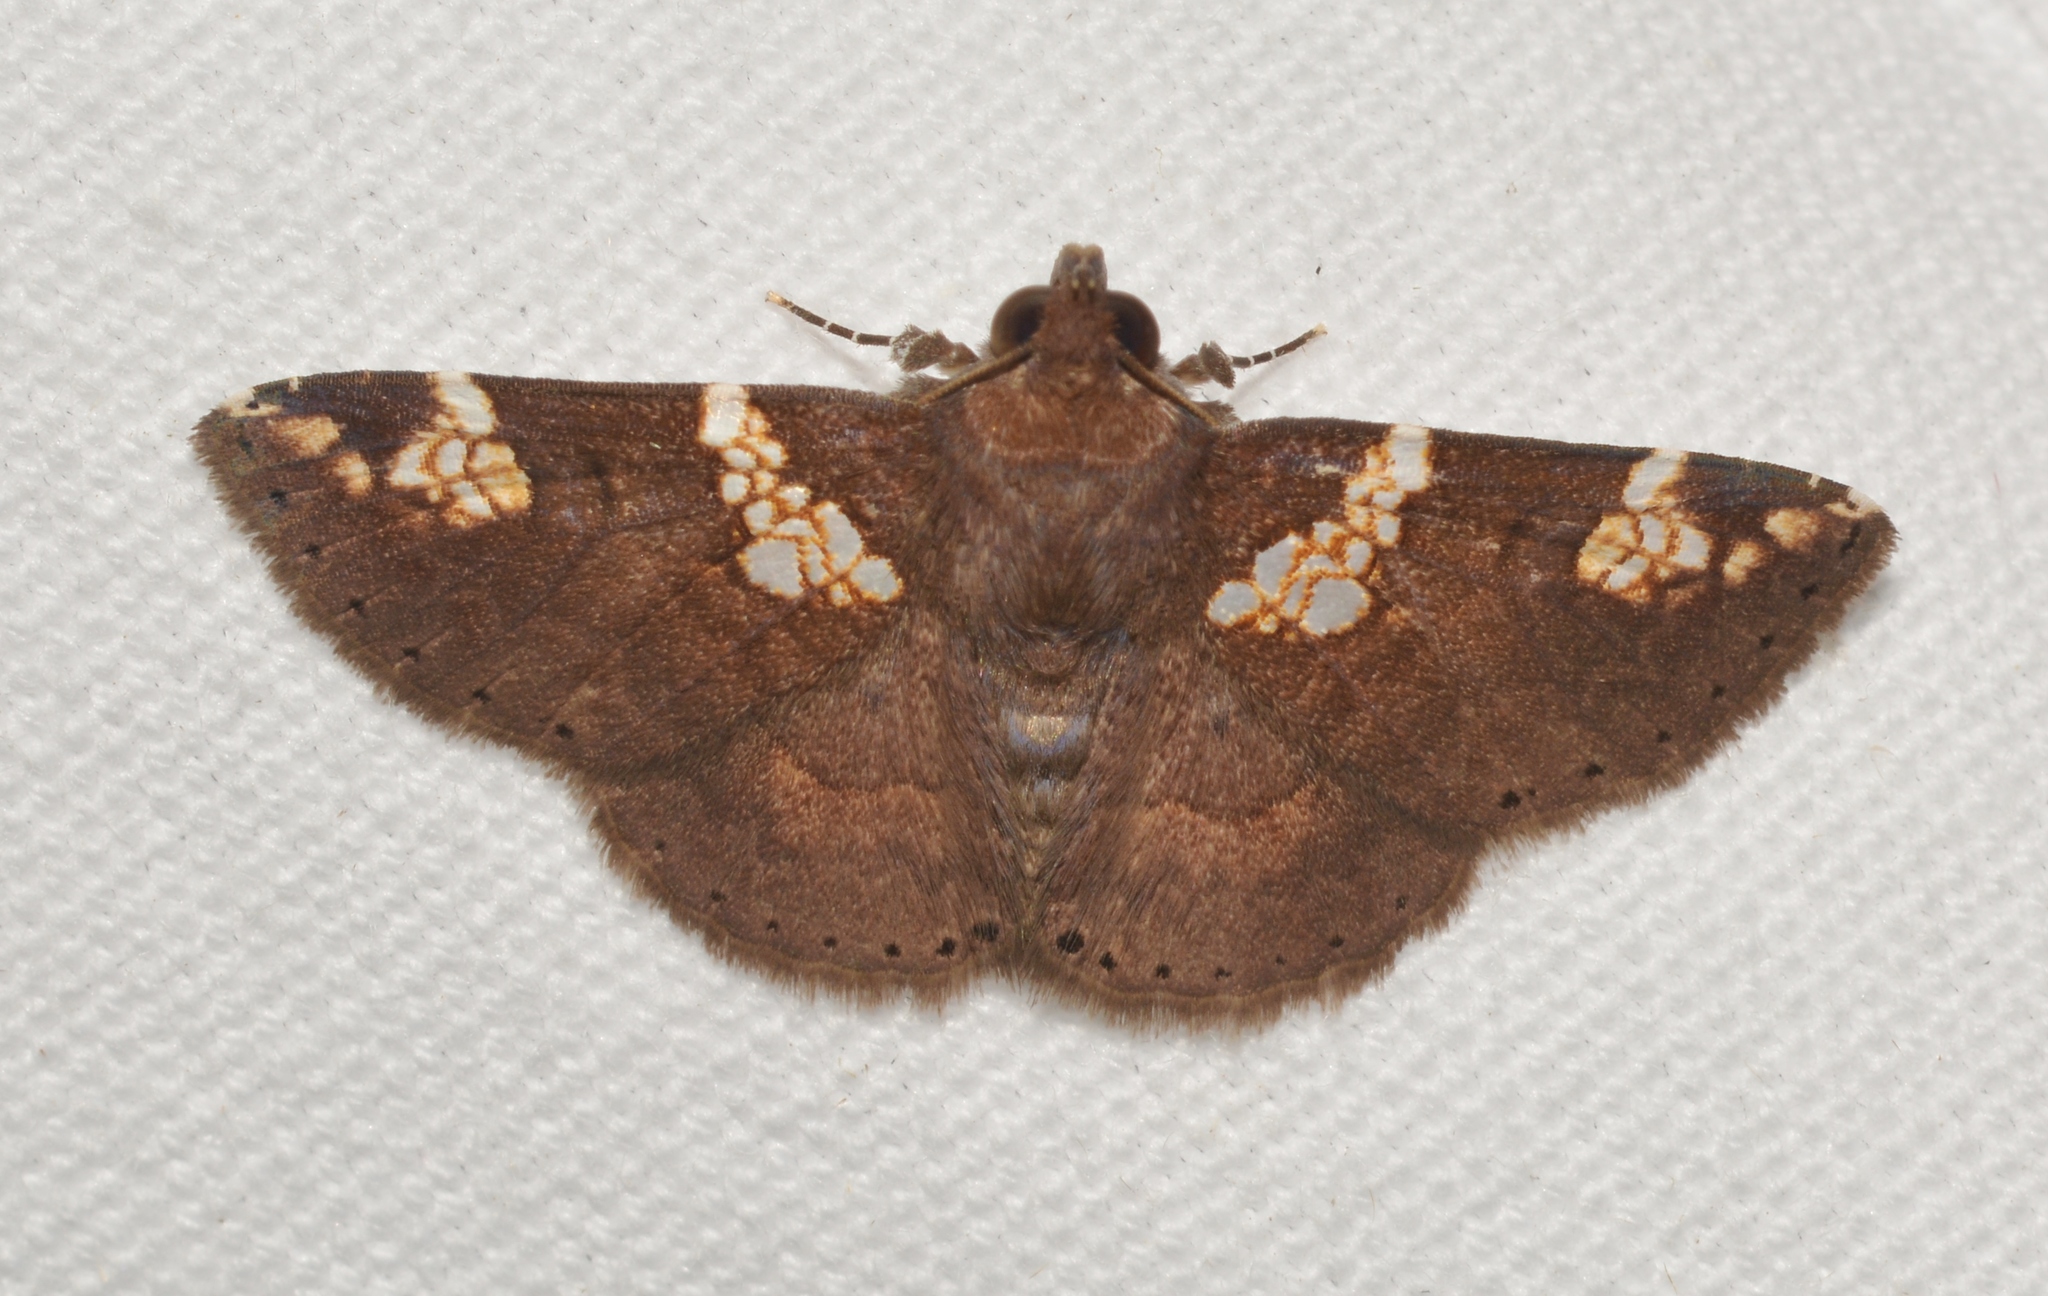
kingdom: Animalia
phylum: Arthropoda
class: Insecta
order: Lepidoptera
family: Erebidae
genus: Antiblemma
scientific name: Antiblemma perornata
